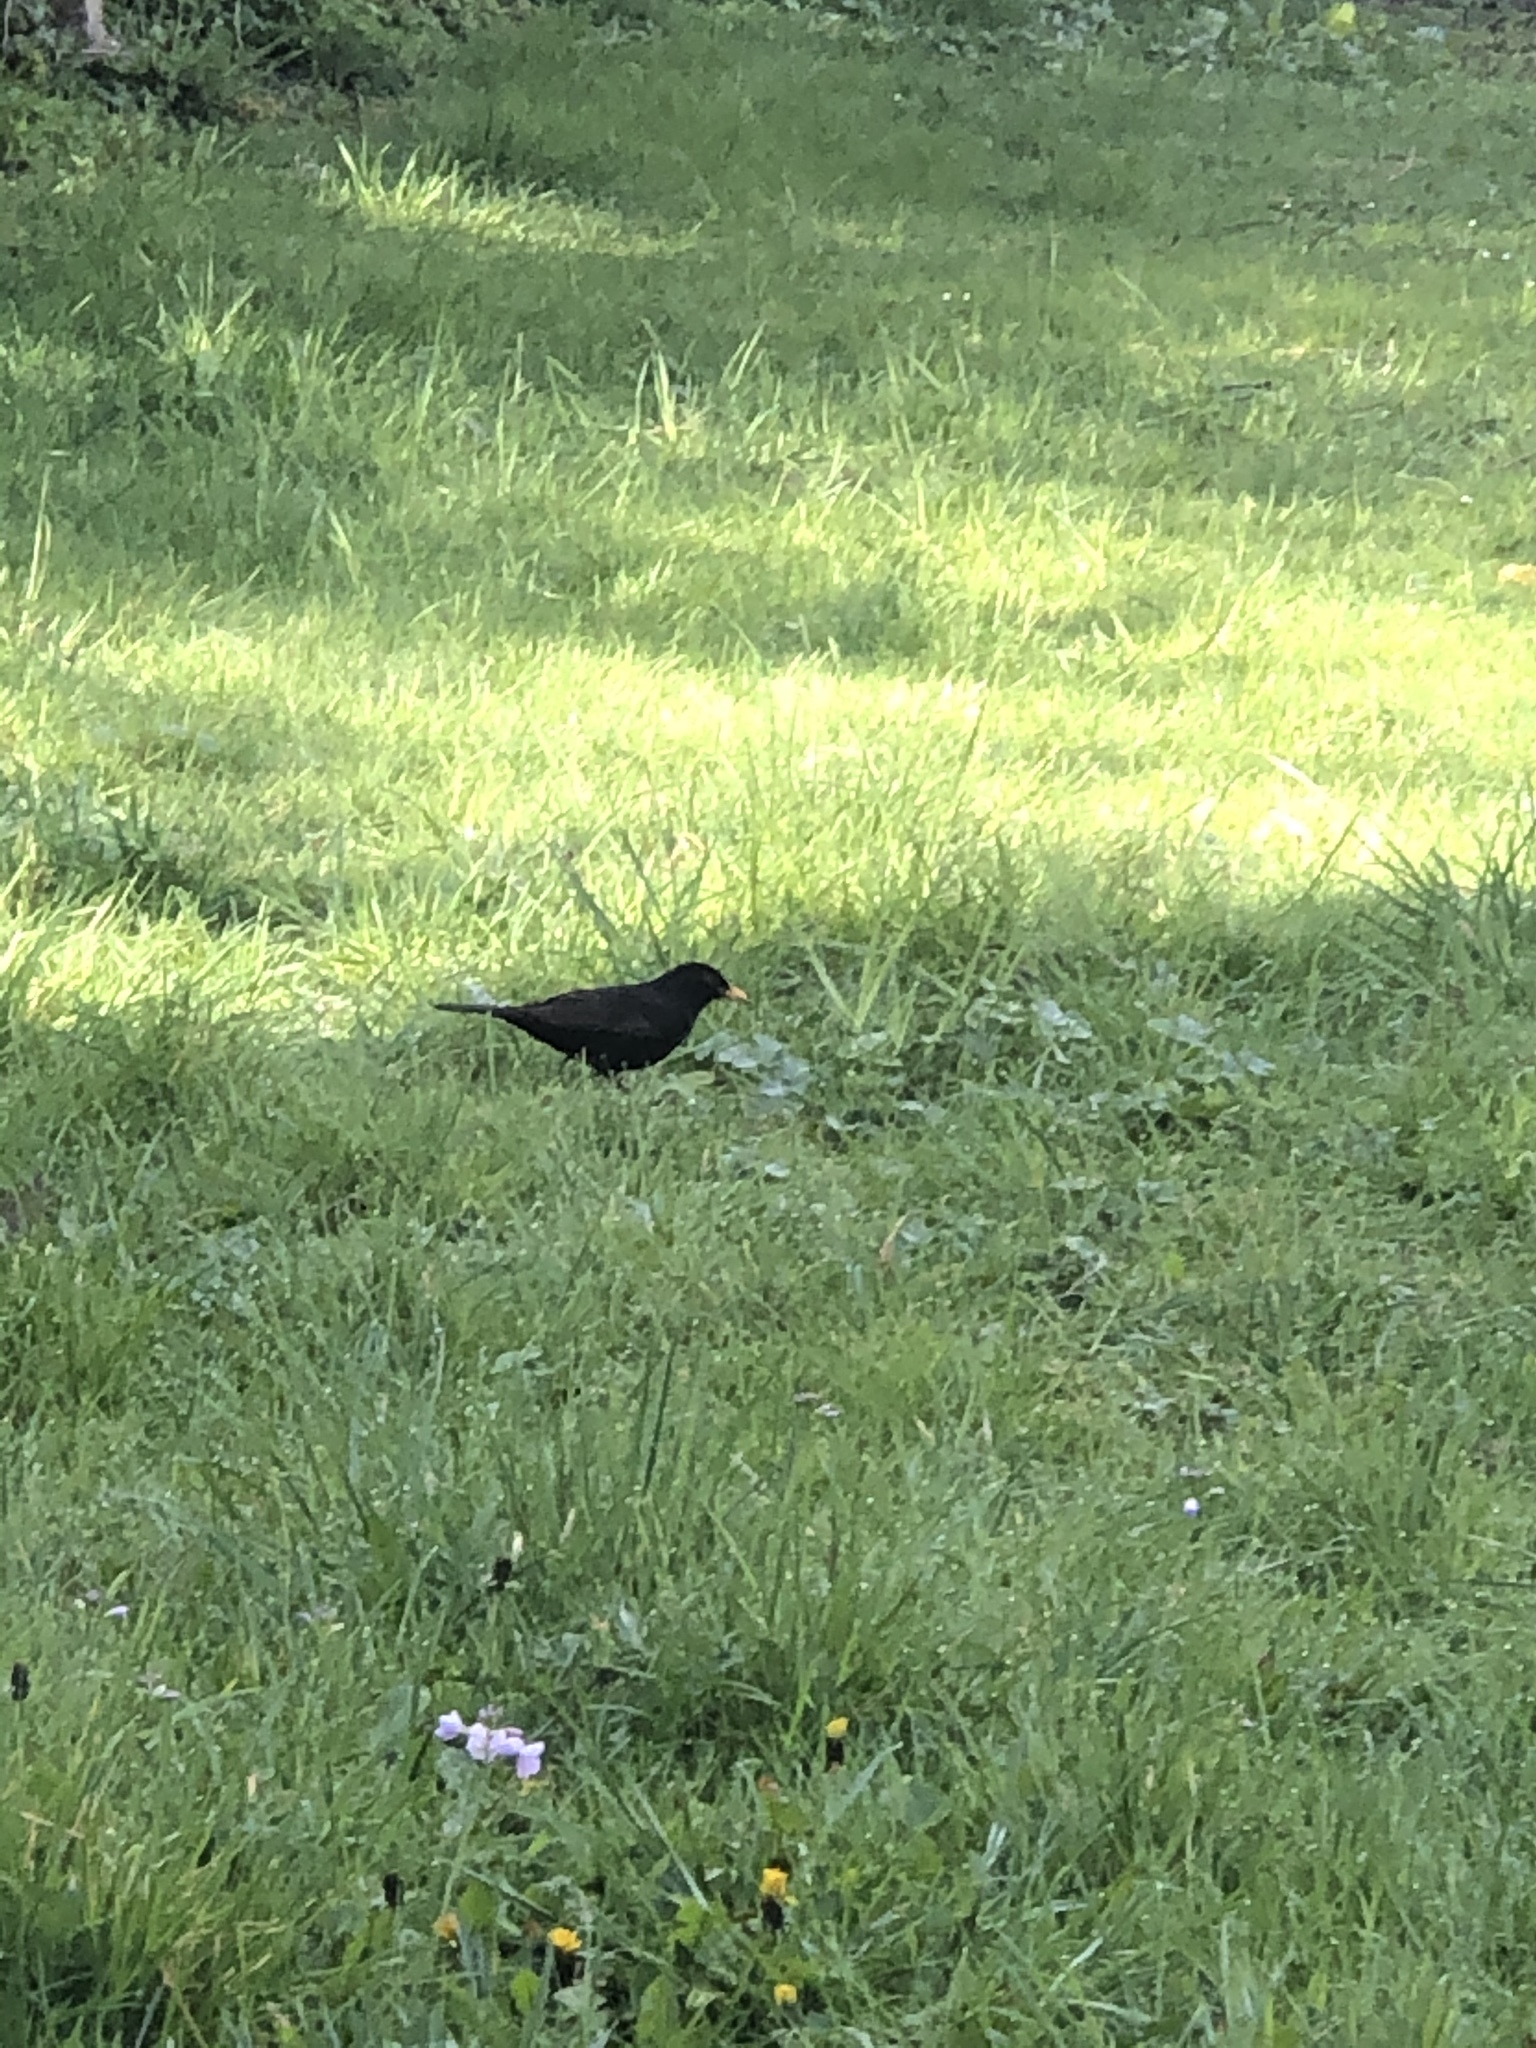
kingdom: Animalia
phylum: Chordata
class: Aves
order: Passeriformes
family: Turdidae
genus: Turdus
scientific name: Turdus merula
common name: Common blackbird
